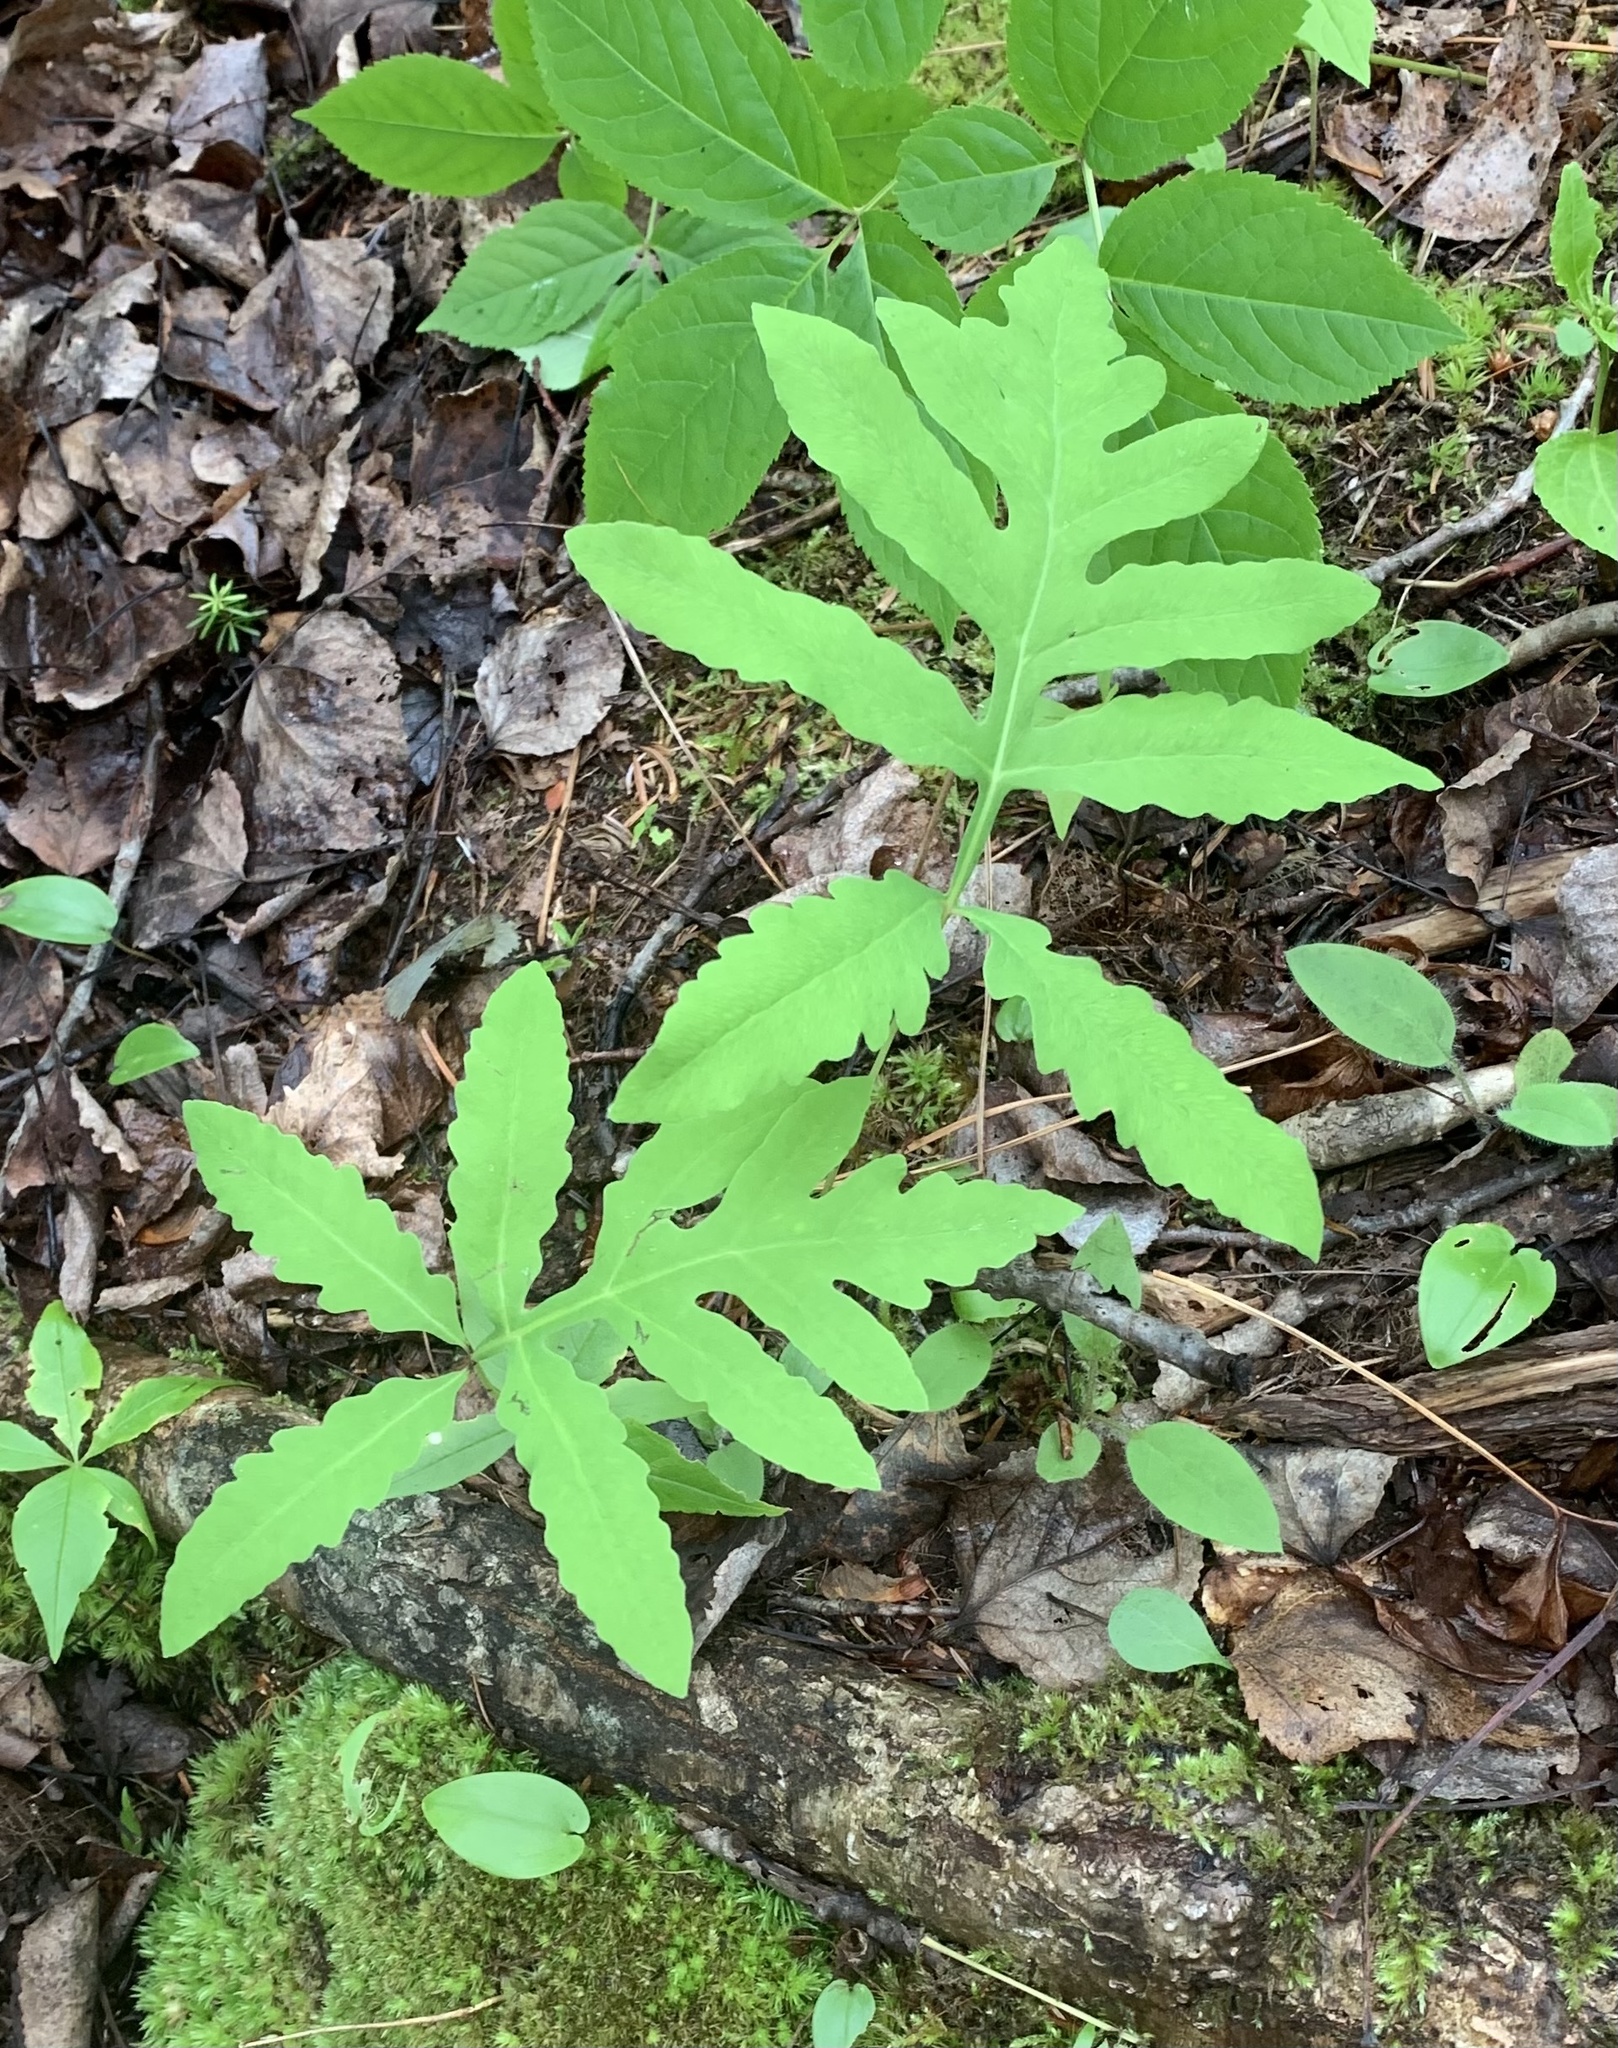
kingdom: Plantae
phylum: Tracheophyta
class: Polypodiopsida
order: Polypodiales
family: Onocleaceae
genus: Onoclea
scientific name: Onoclea sensibilis
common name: Sensitive fern
